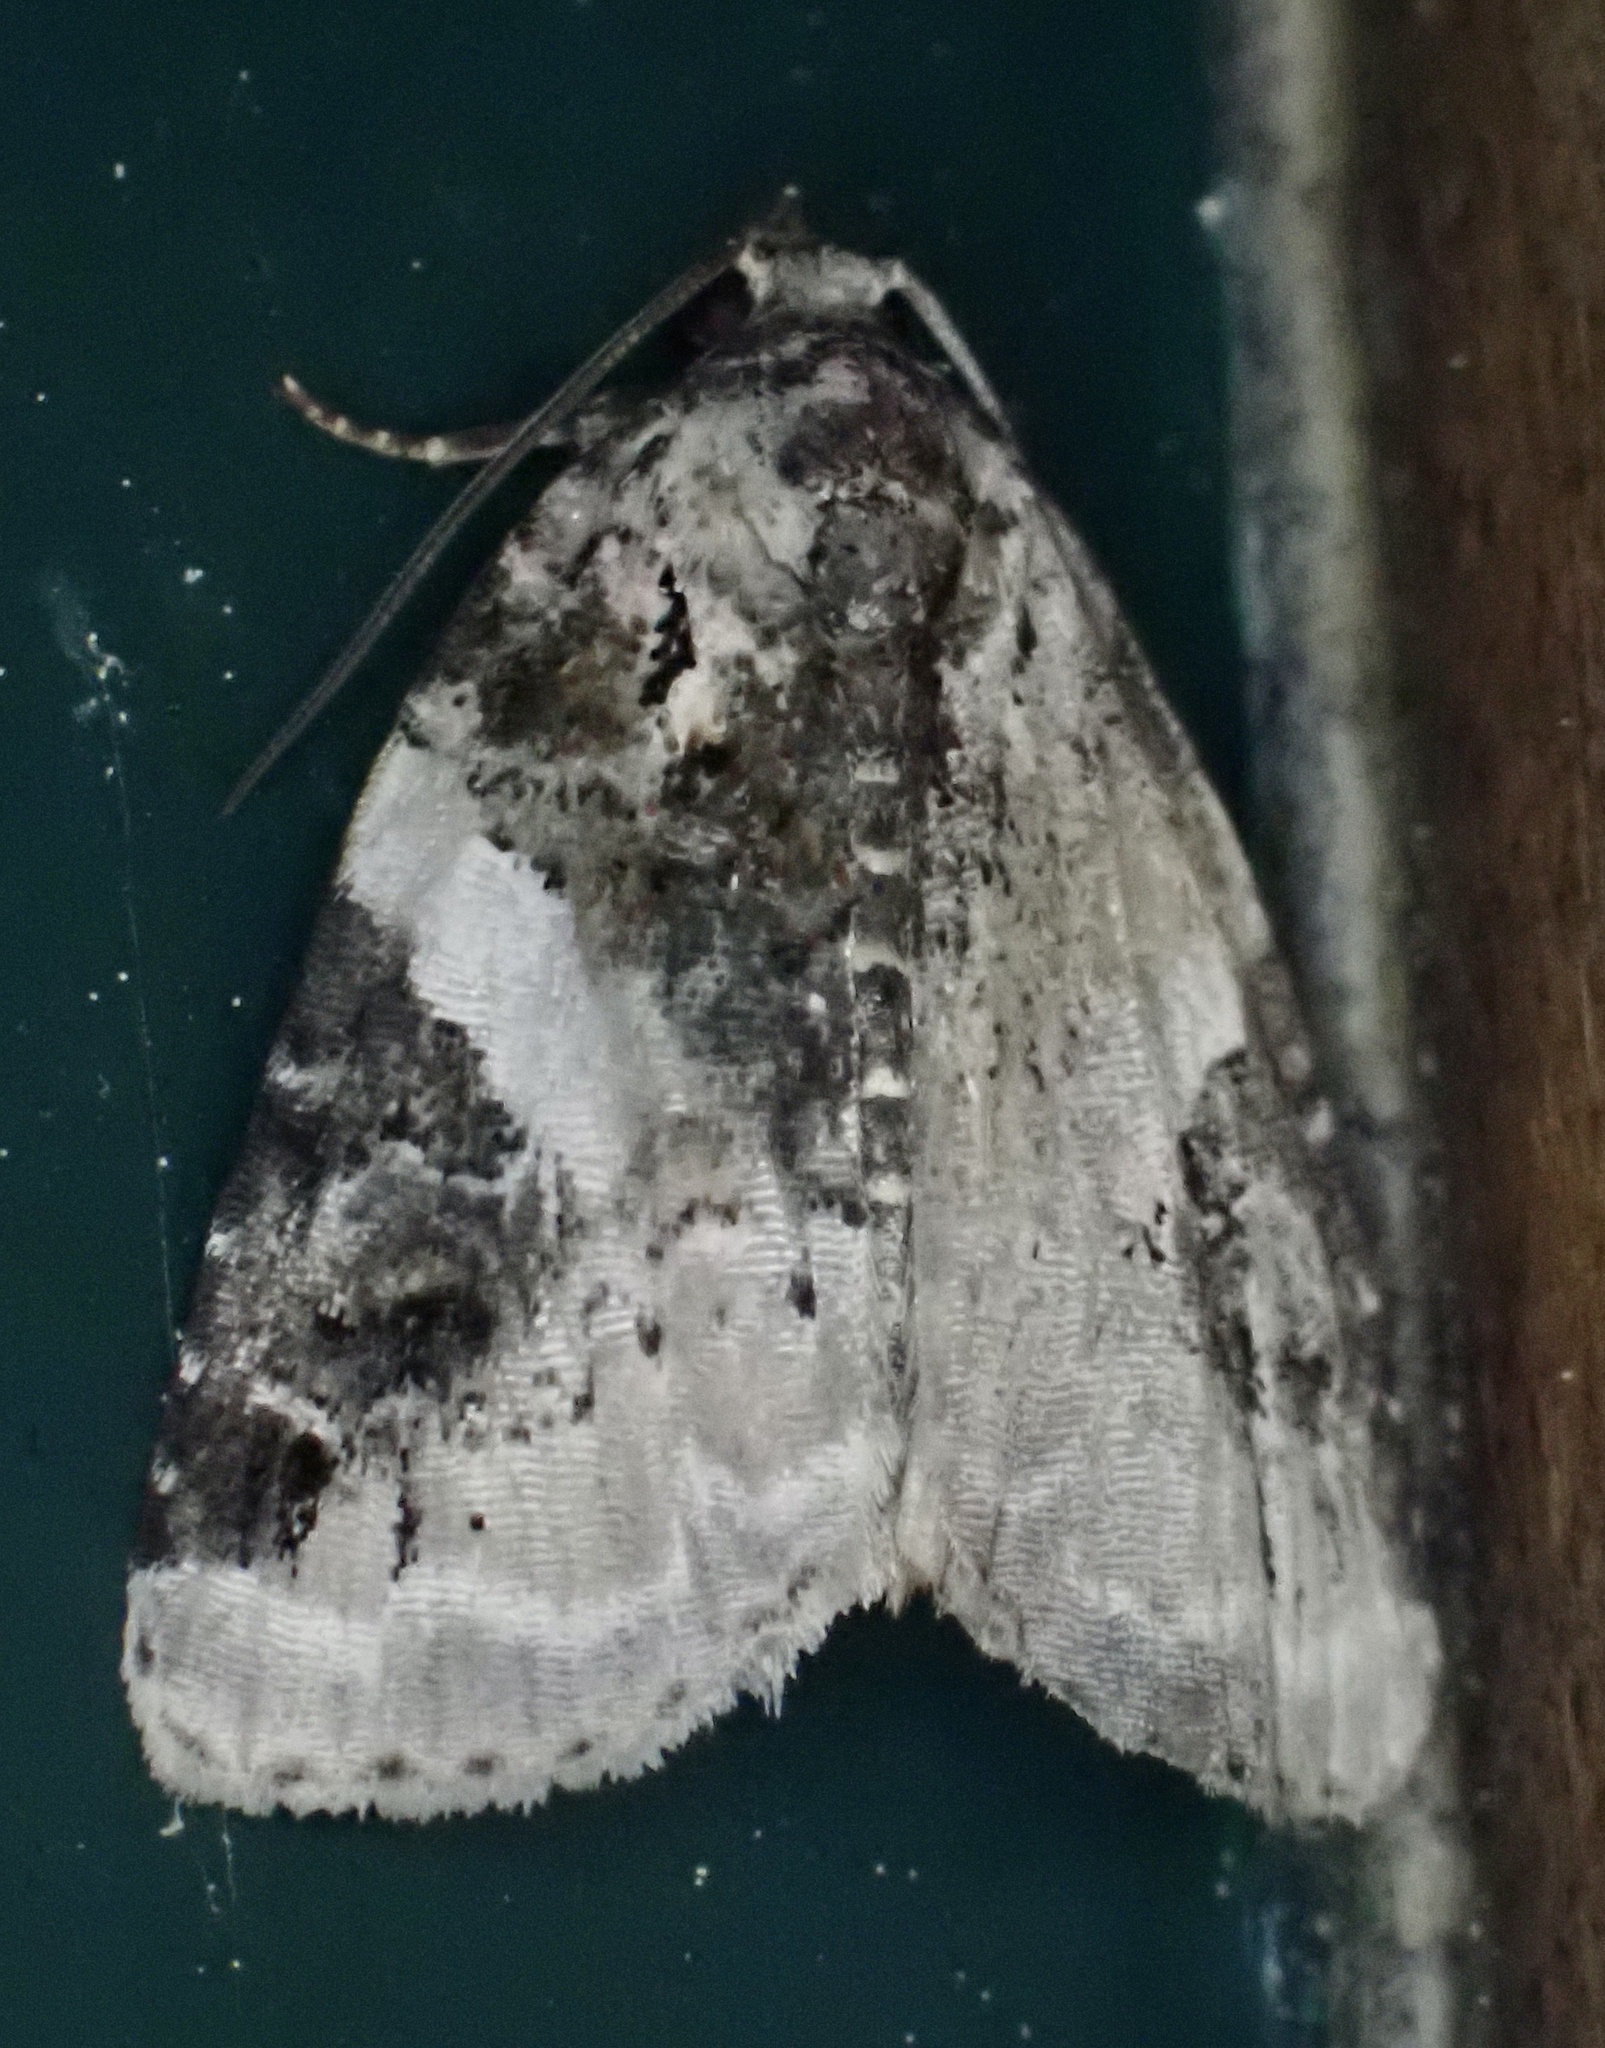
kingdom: Animalia
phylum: Arthropoda
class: Insecta
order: Lepidoptera
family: Noctuidae
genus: Pseudeustrotia
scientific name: Pseudeustrotia carneola
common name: Pink-barred lithacodia moth
